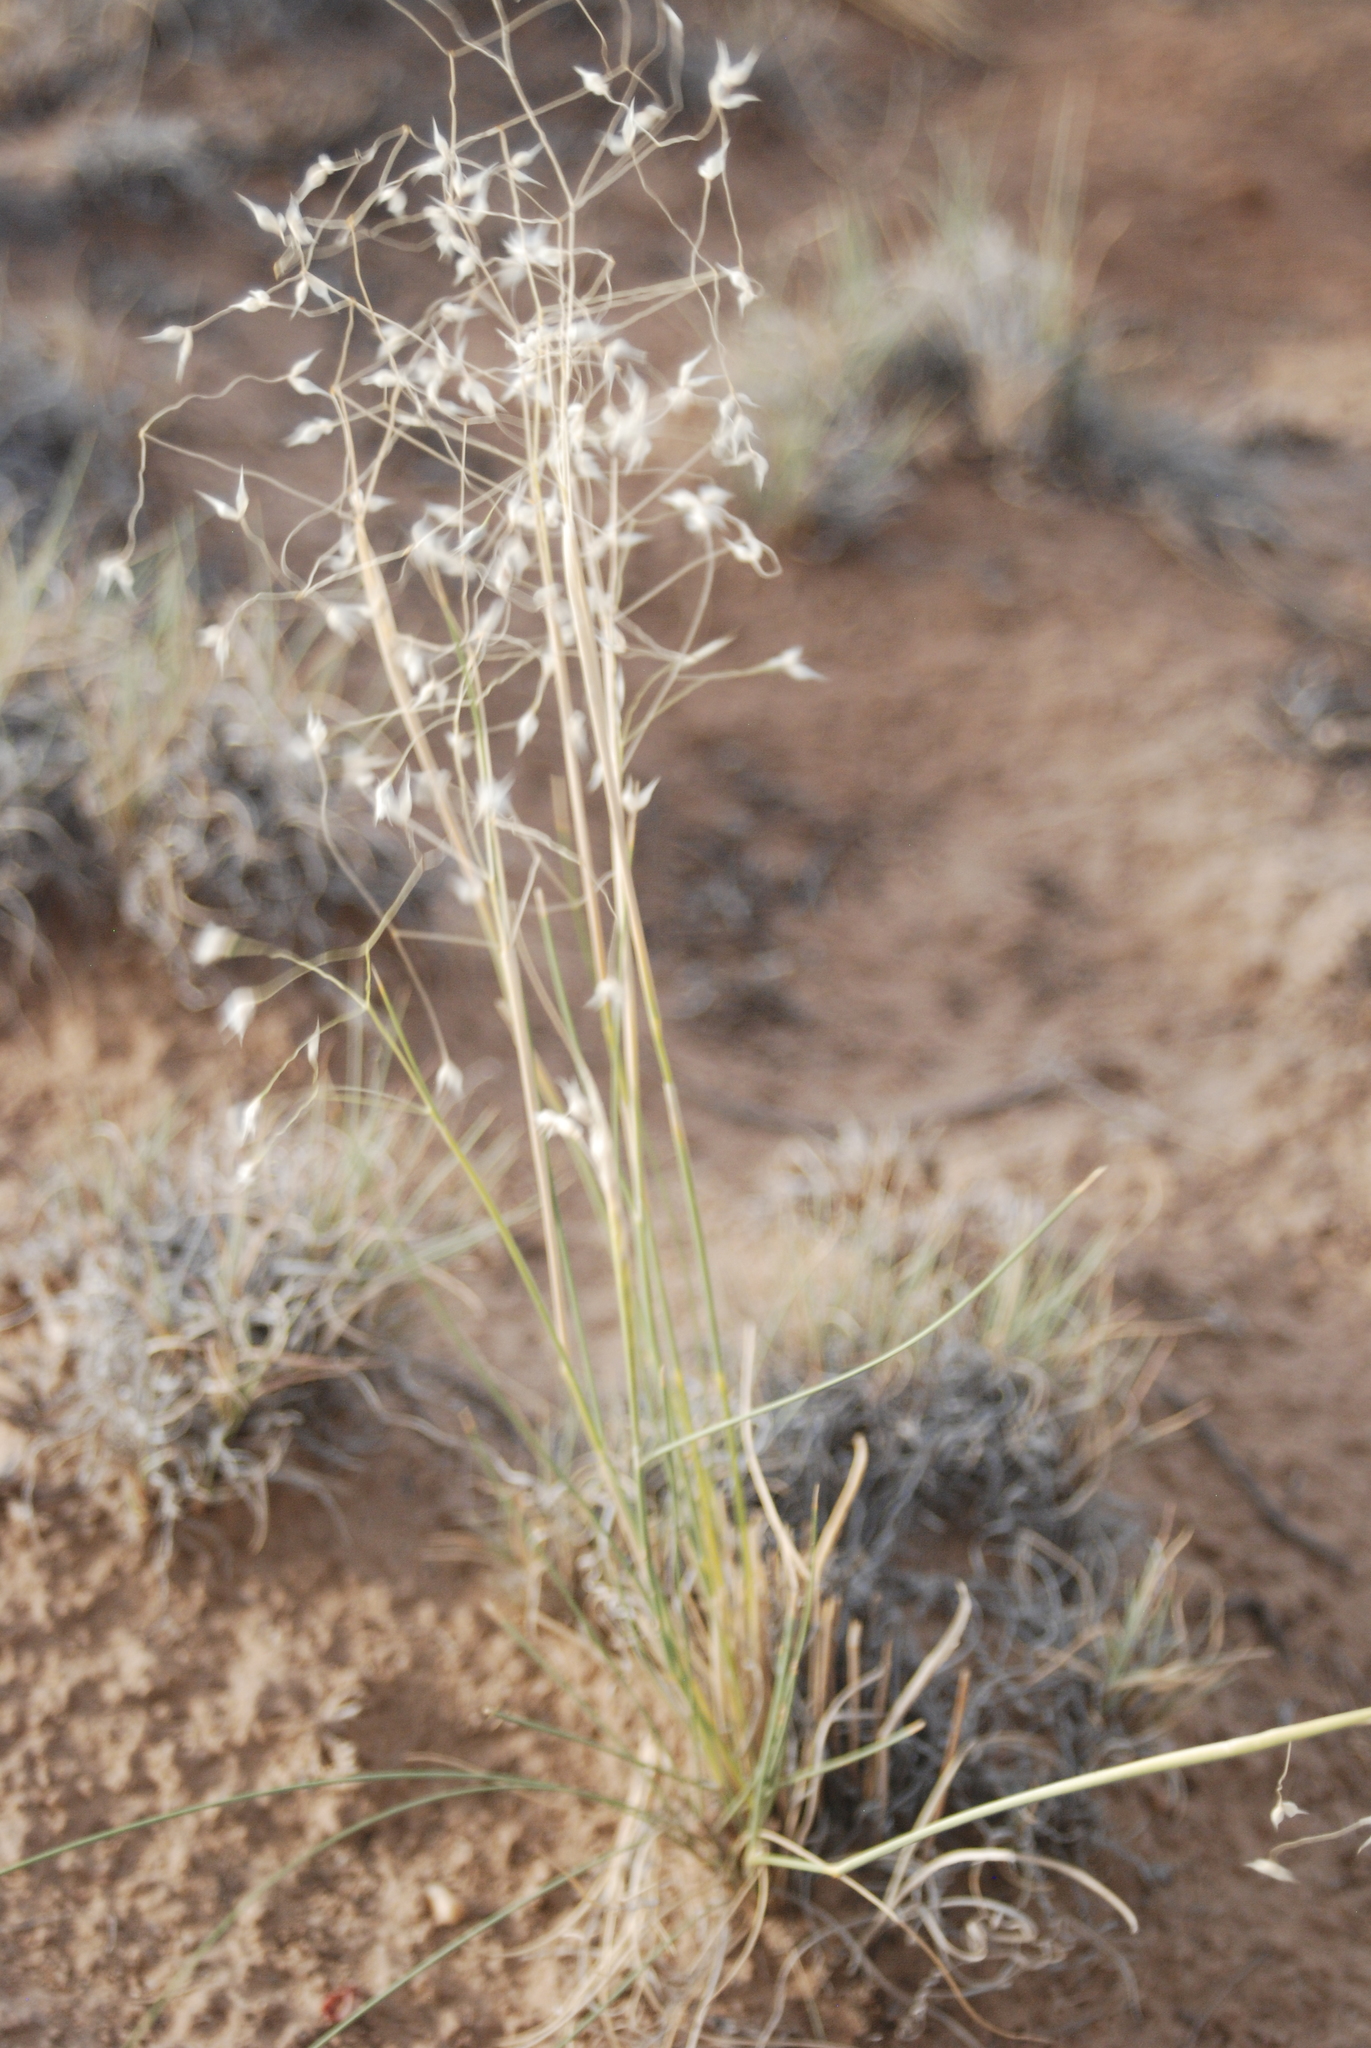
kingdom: Plantae
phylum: Tracheophyta
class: Liliopsida
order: Poales
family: Poaceae
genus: Eriocoma
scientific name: Eriocoma hymenoides
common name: Indian mountain ricegrass
